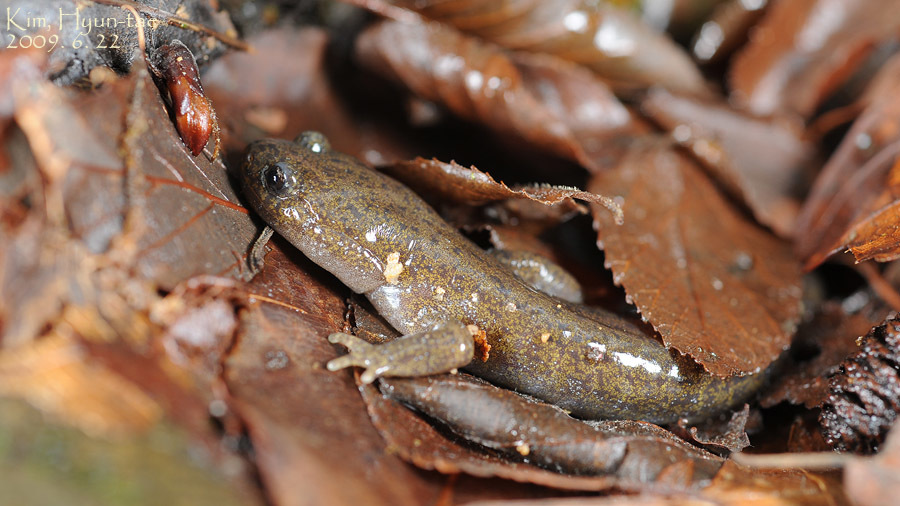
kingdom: Animalia
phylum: Chordata
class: Amphibia
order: Caudata
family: Hynobiidae
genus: Hynobius
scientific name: Hynobius leechii
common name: Gensan salamander
